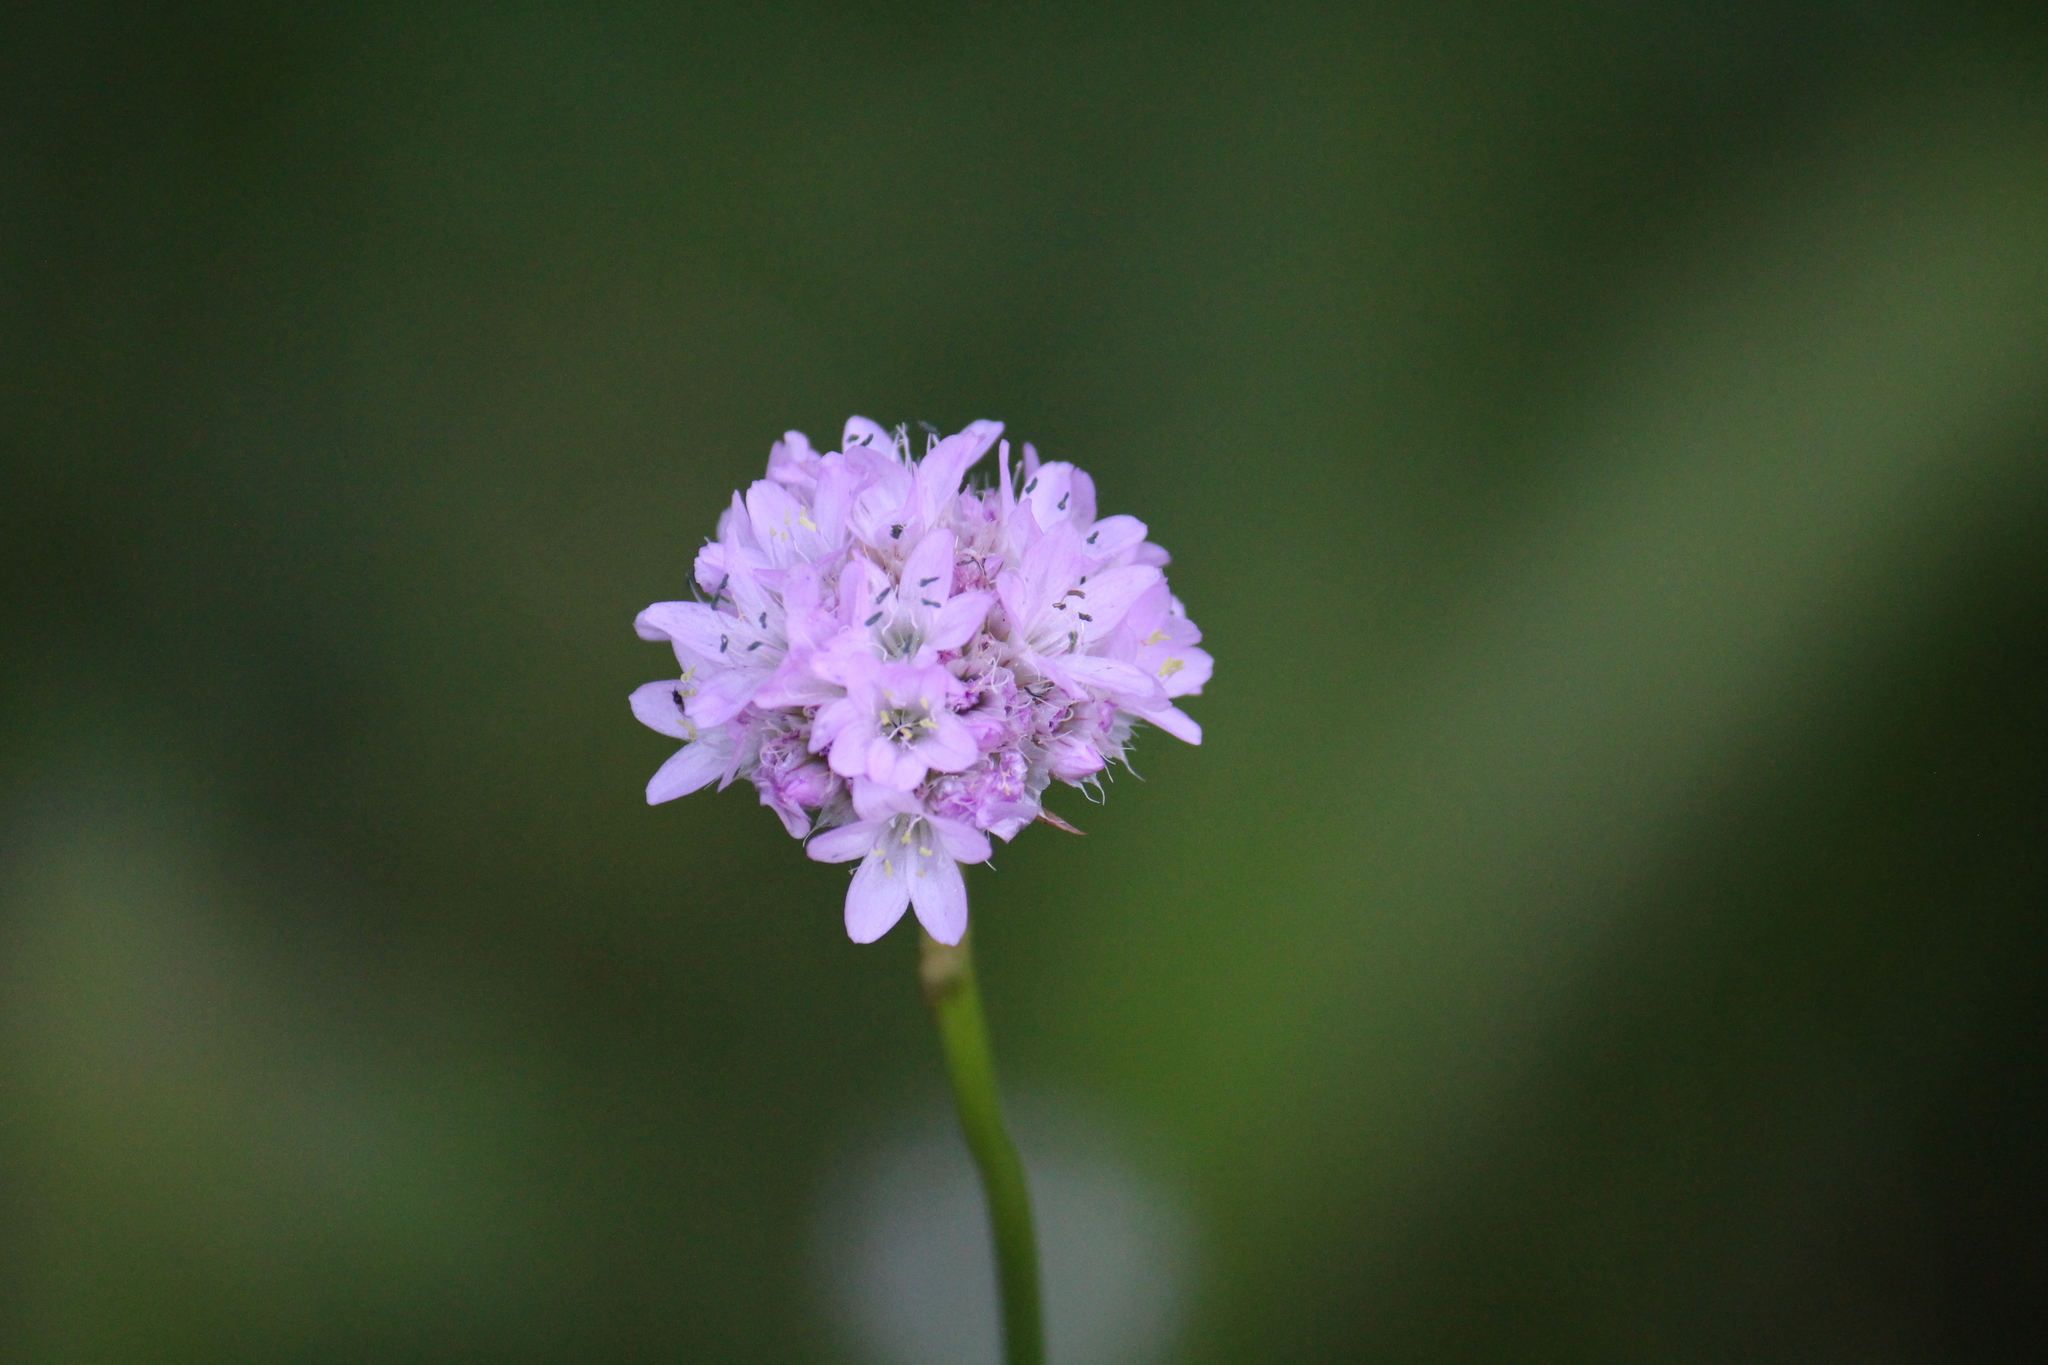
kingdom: Plantae
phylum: Tracheophyta
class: Magnoliopsida
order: Caryophyllales
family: Plumbaginaceae
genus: Armeria
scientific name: Armeria maritima
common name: Thrift
